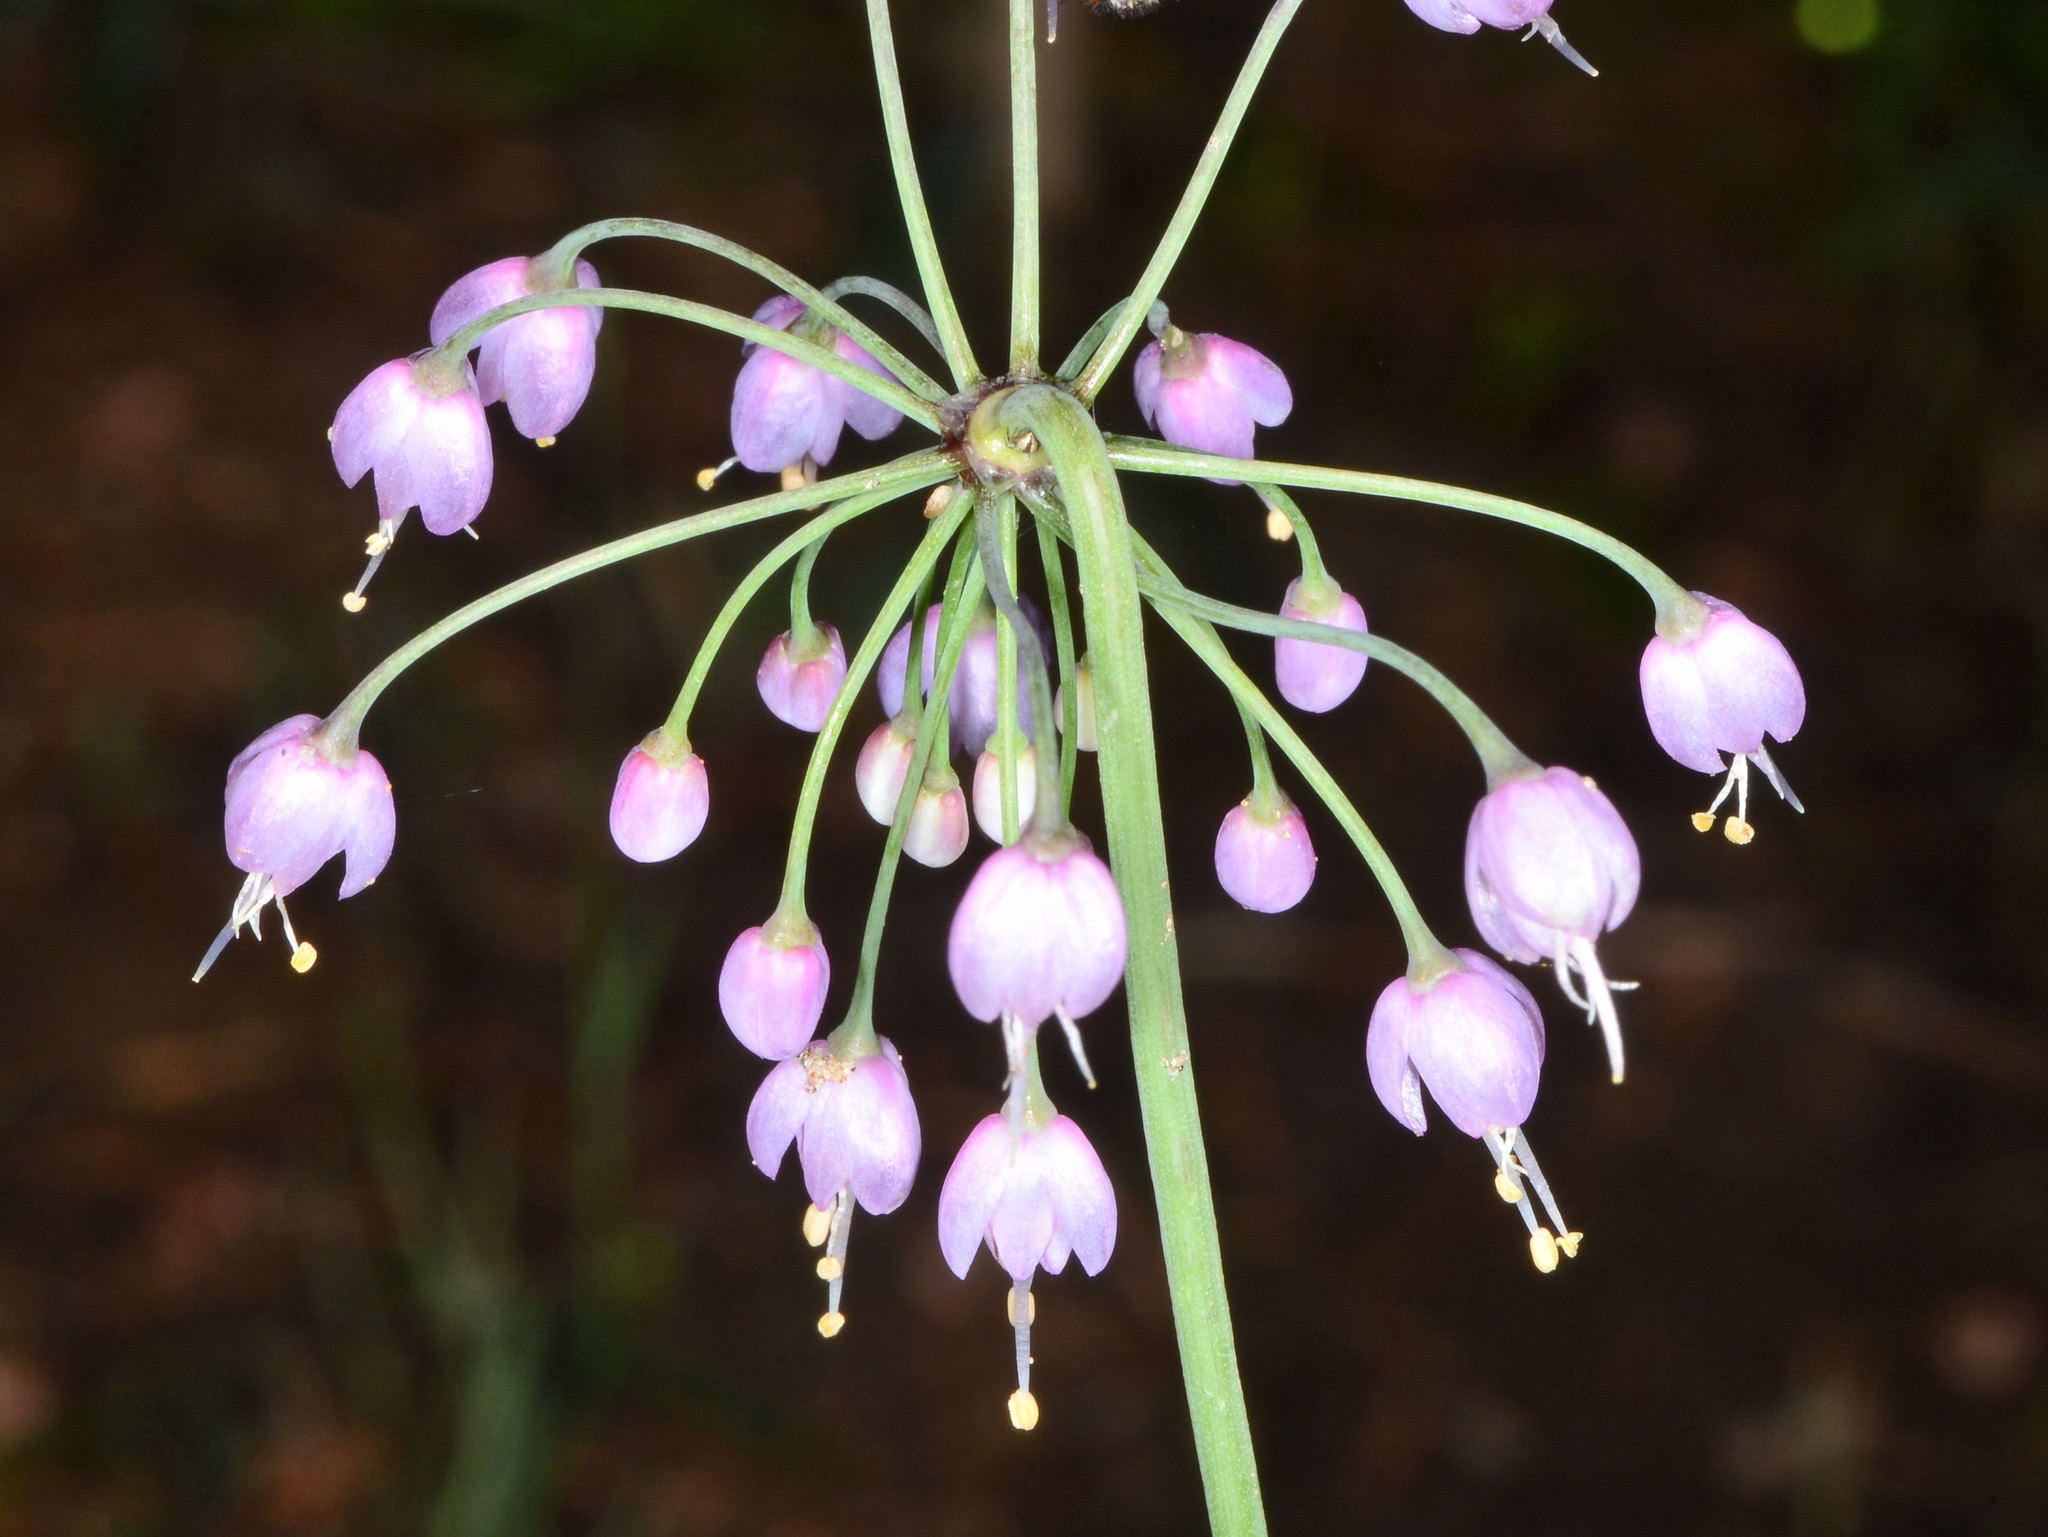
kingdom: Plantae
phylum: Tracheophyta
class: Liliopsida
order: Asparagales
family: Amaryllidaceae
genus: Allium
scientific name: Allium cernuum
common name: Nodding onion
